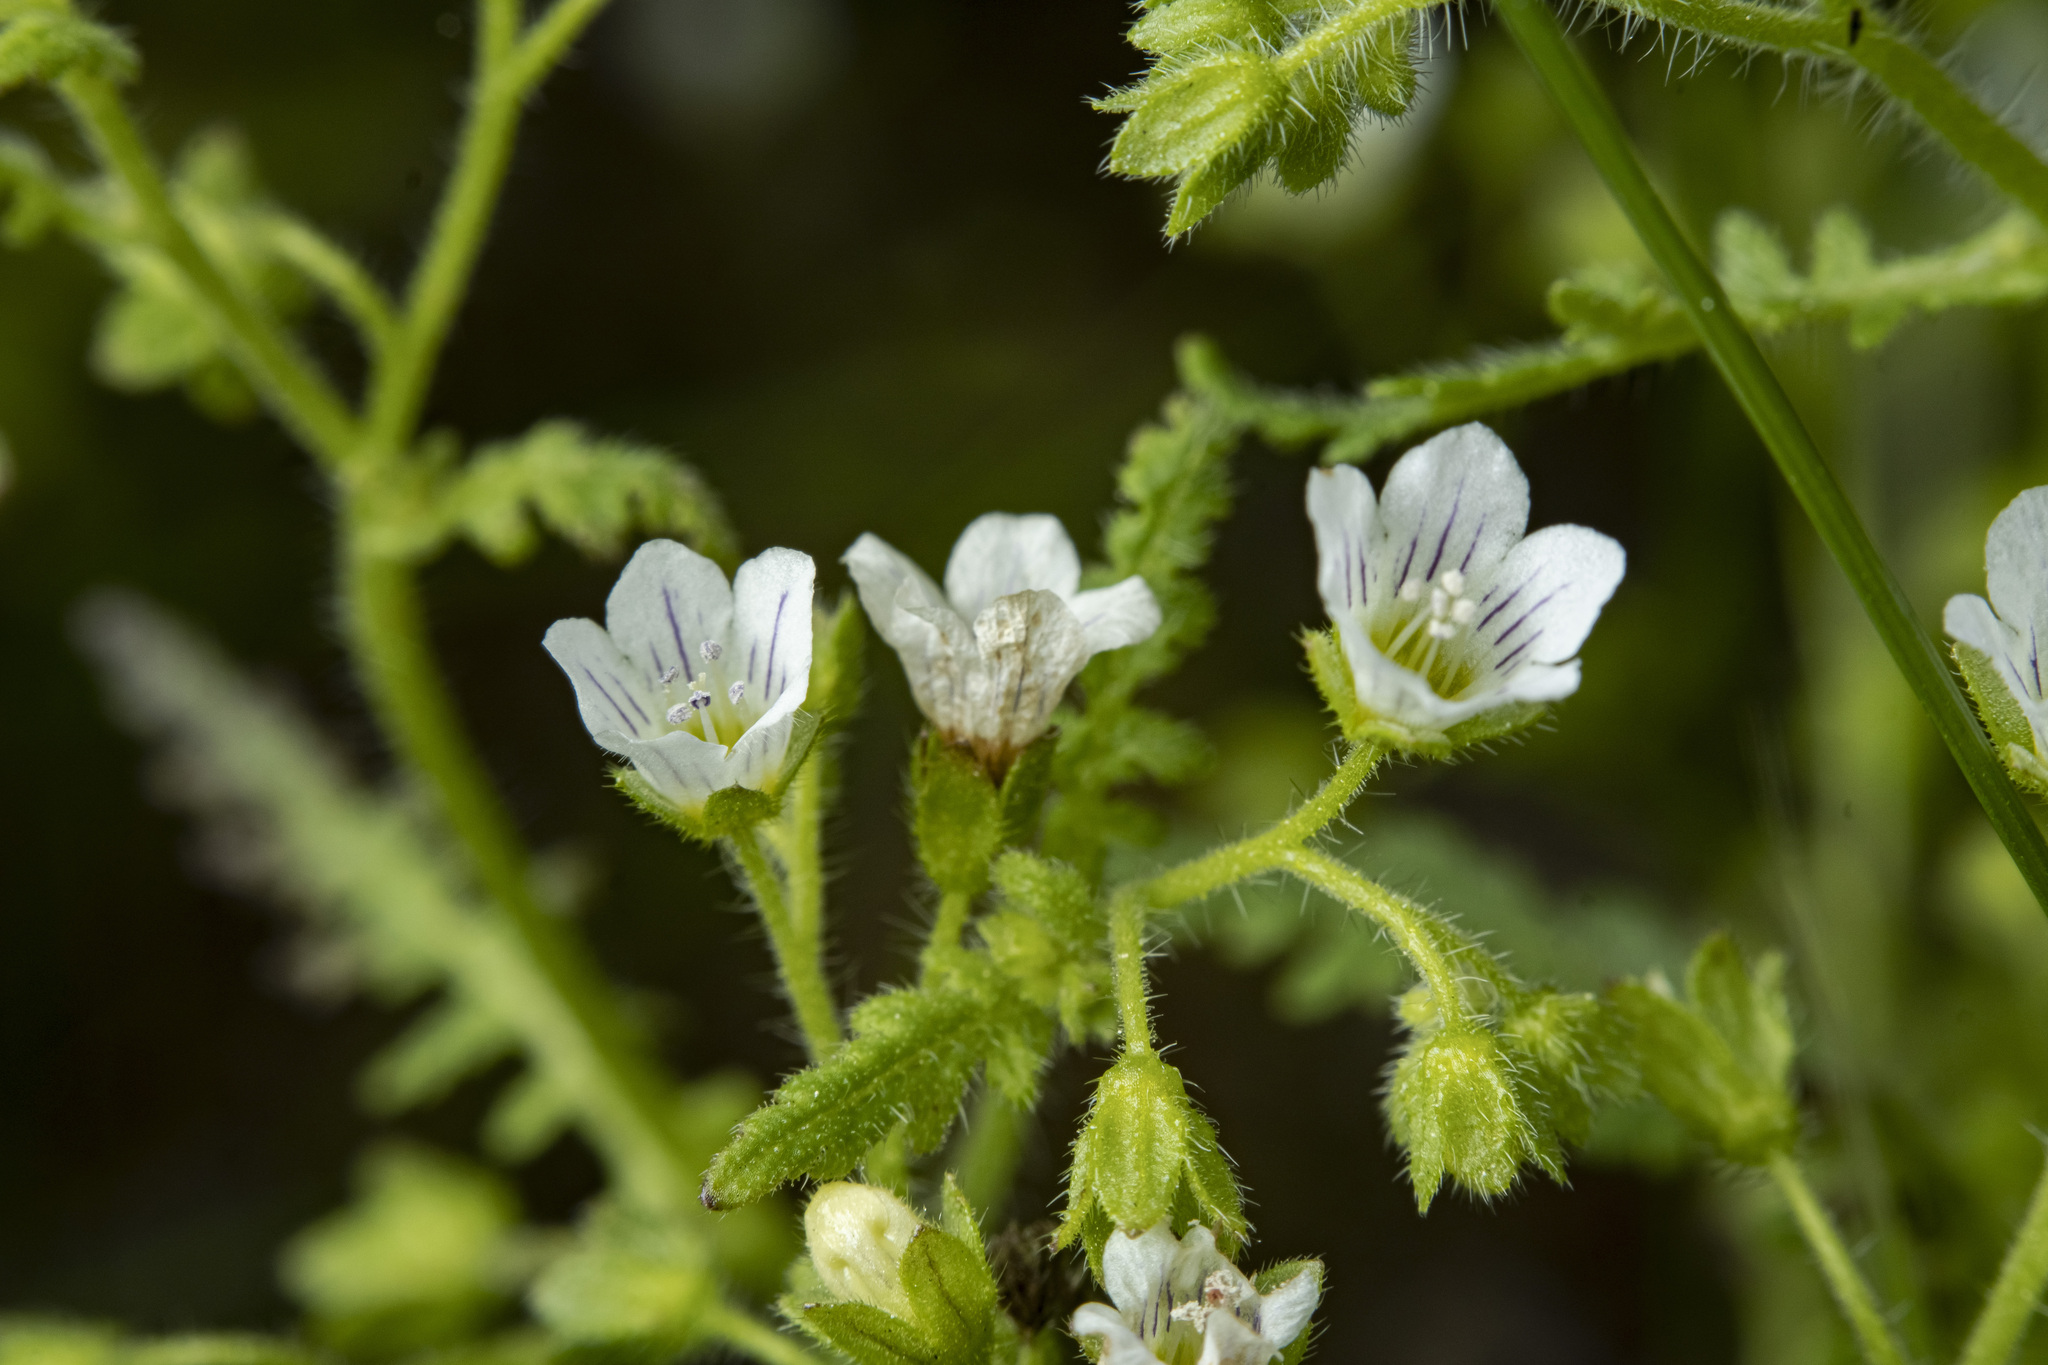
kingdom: Plantae
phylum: Tracheophyta
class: Magnoliopsida
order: Boraginales
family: Hydrophyllaceae
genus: Eucrypta
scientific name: Eucrypta chrysanthemifolia
